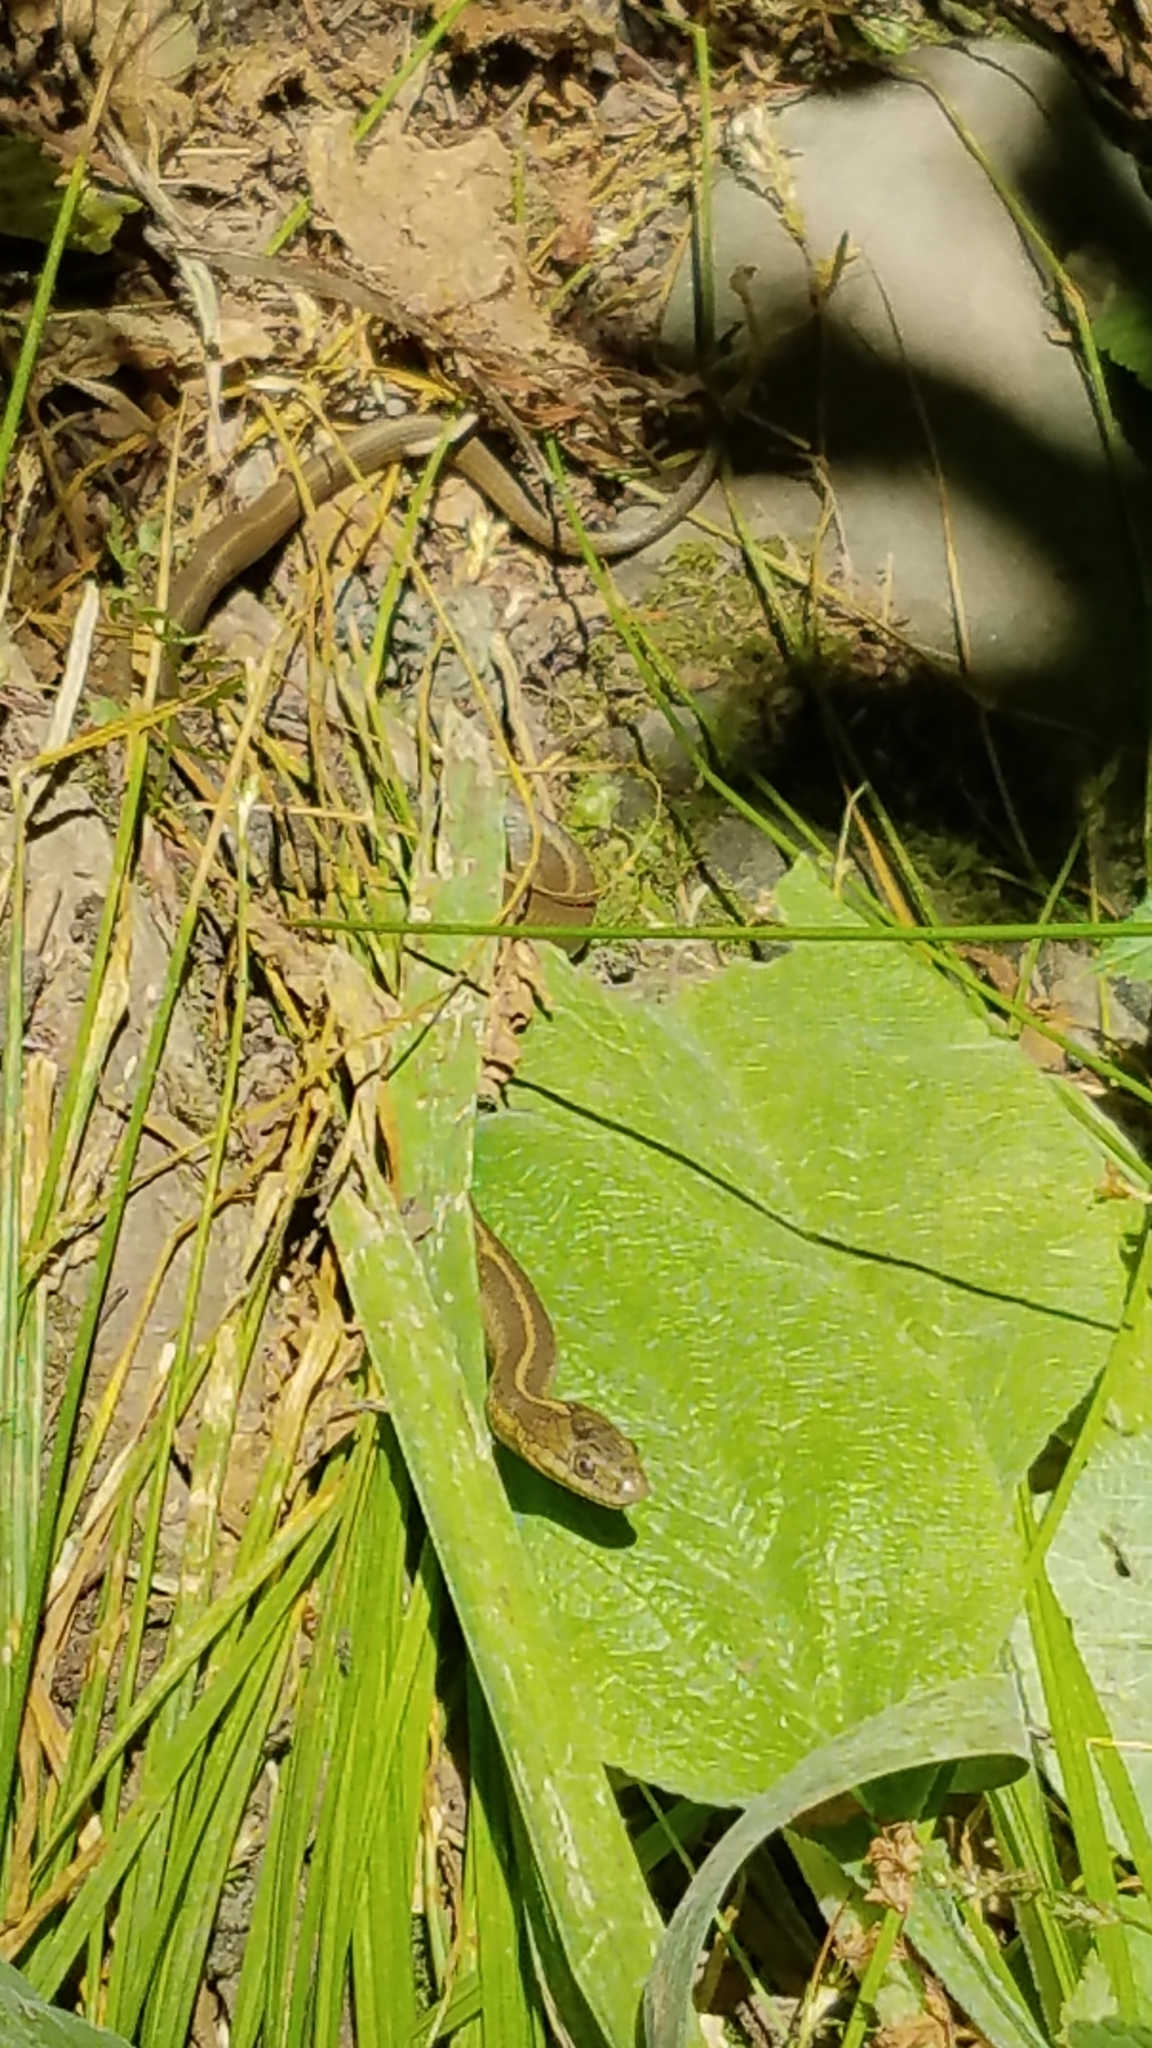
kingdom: Animalia
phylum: Chordata
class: Squamata
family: Colubridae
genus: Thamnophis
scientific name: Thamnophis atratus
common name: Pacific coast aquatic garter snake
